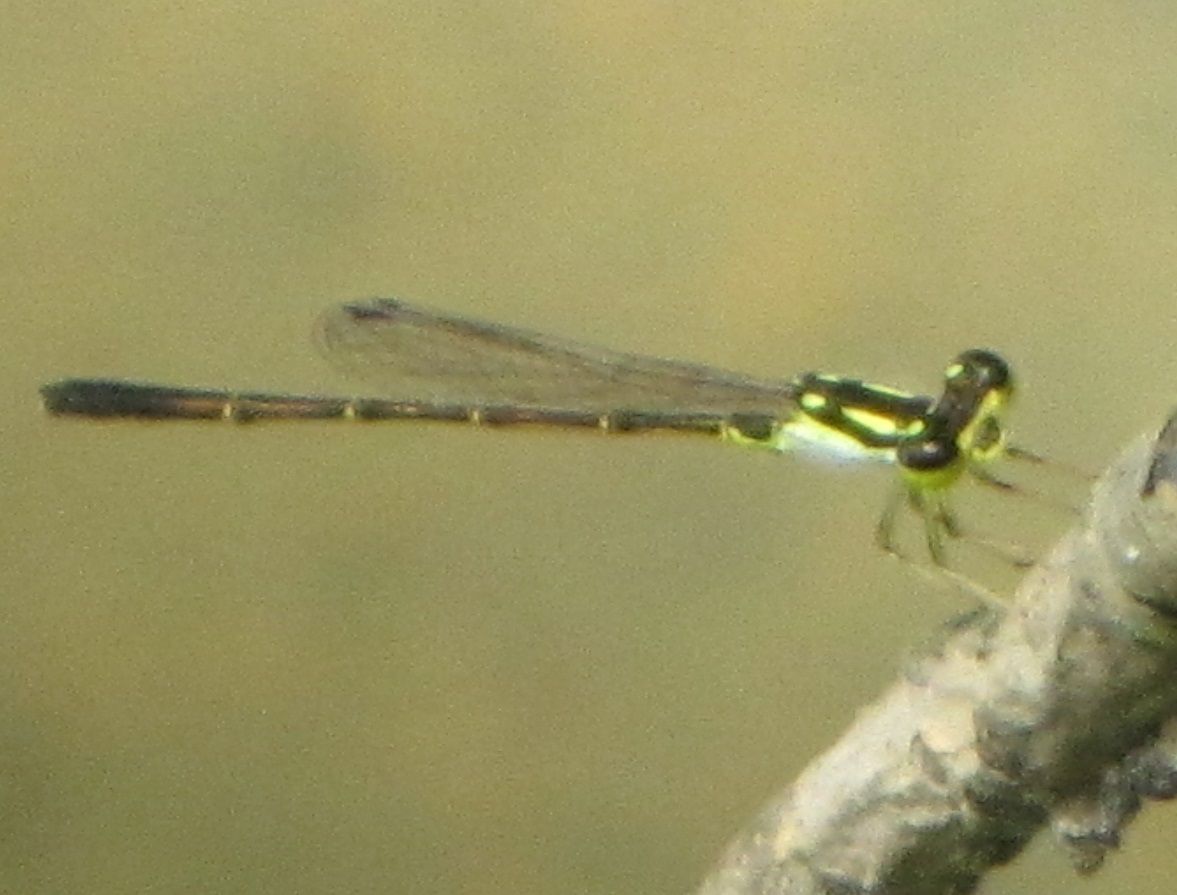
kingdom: Animalia
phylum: Arthropoda
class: Insecta
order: Odonata
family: Coenagrionidae
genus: Ischnura
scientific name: Ischnura posita
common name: Fragile forktail
